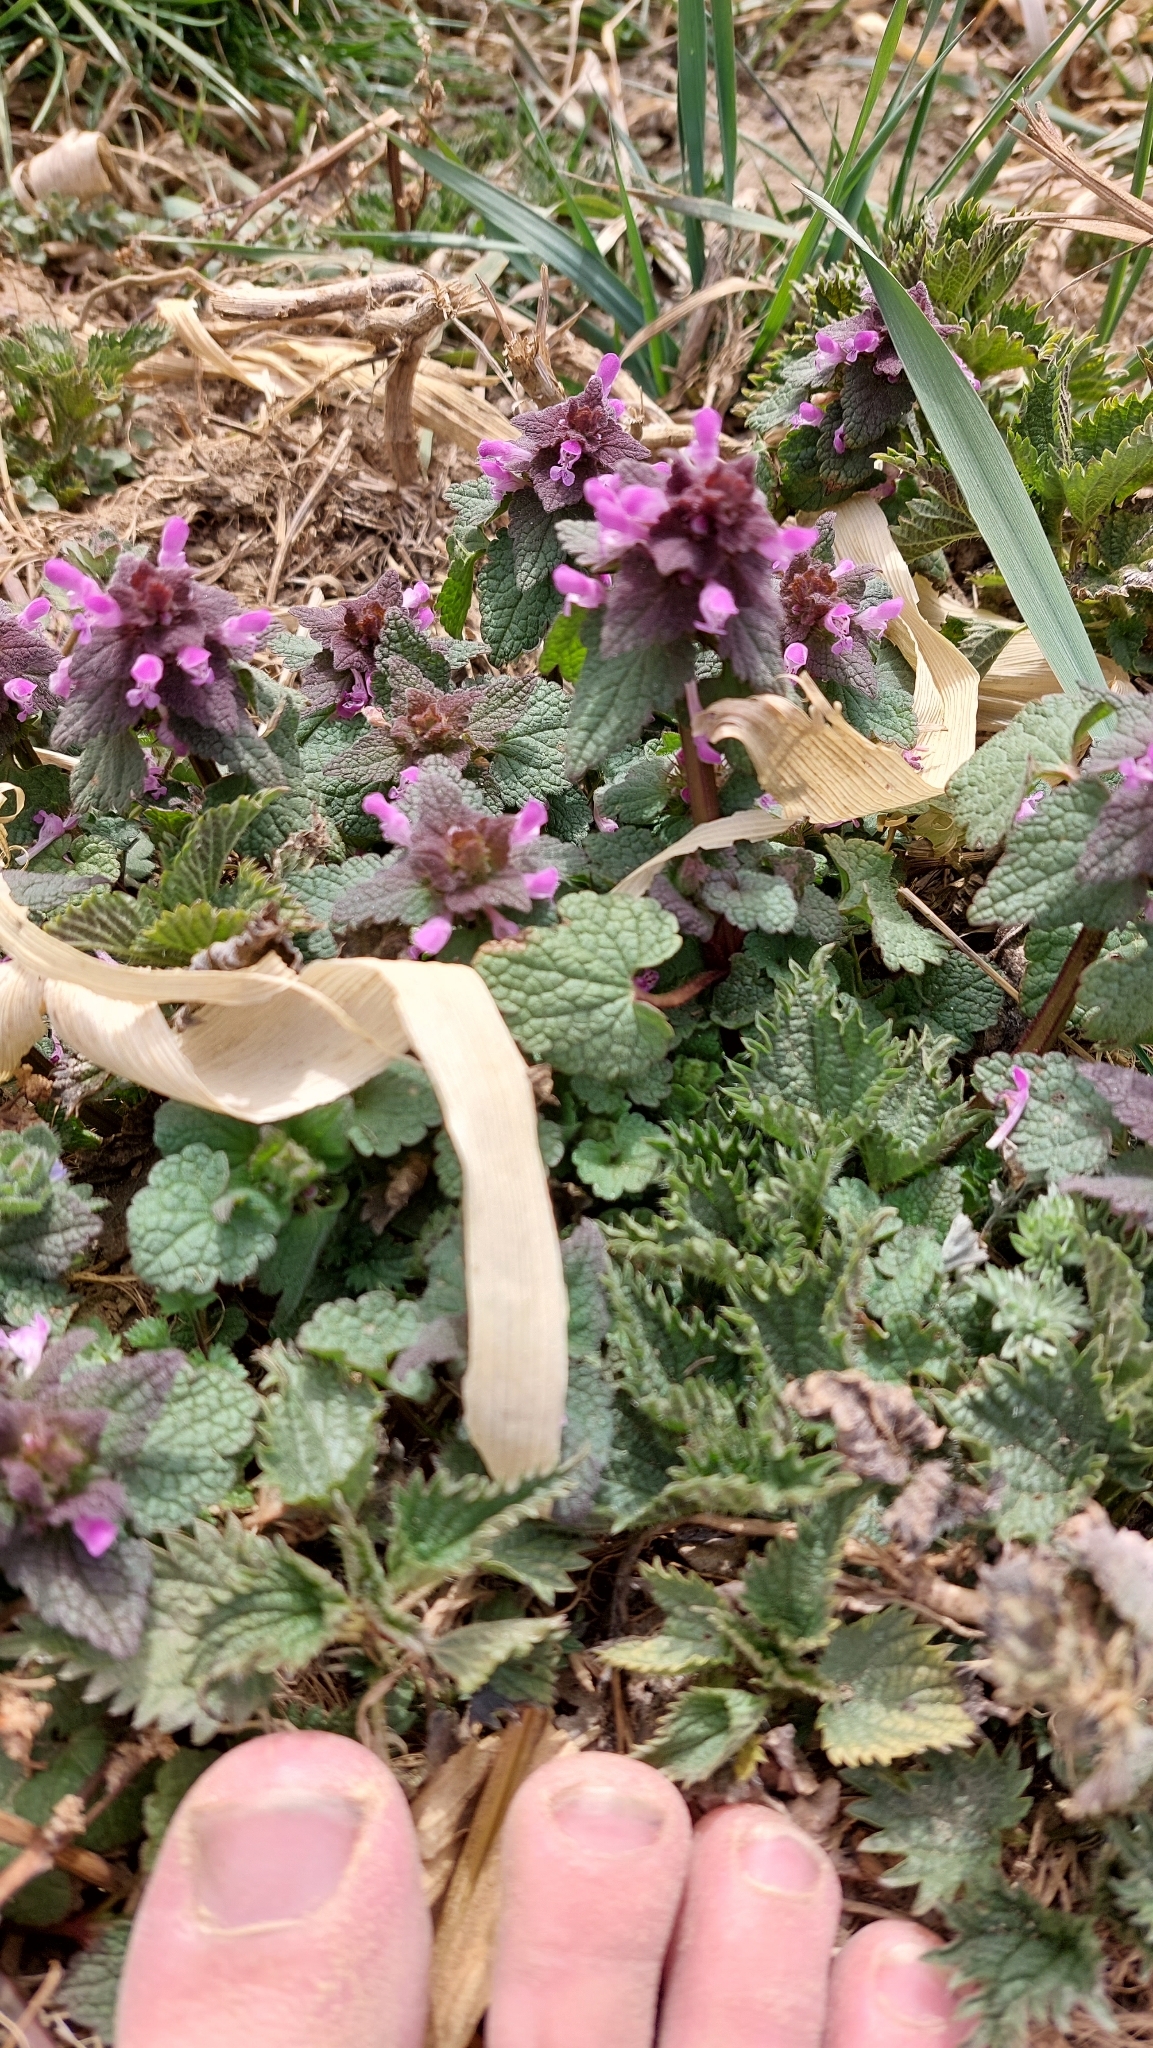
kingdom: Plantae
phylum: Tracheophyta
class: Magnoliopsida
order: Lamiales
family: Lamiaceae
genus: Lamium
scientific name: Lamium purpureum
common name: Red dead-nettle
